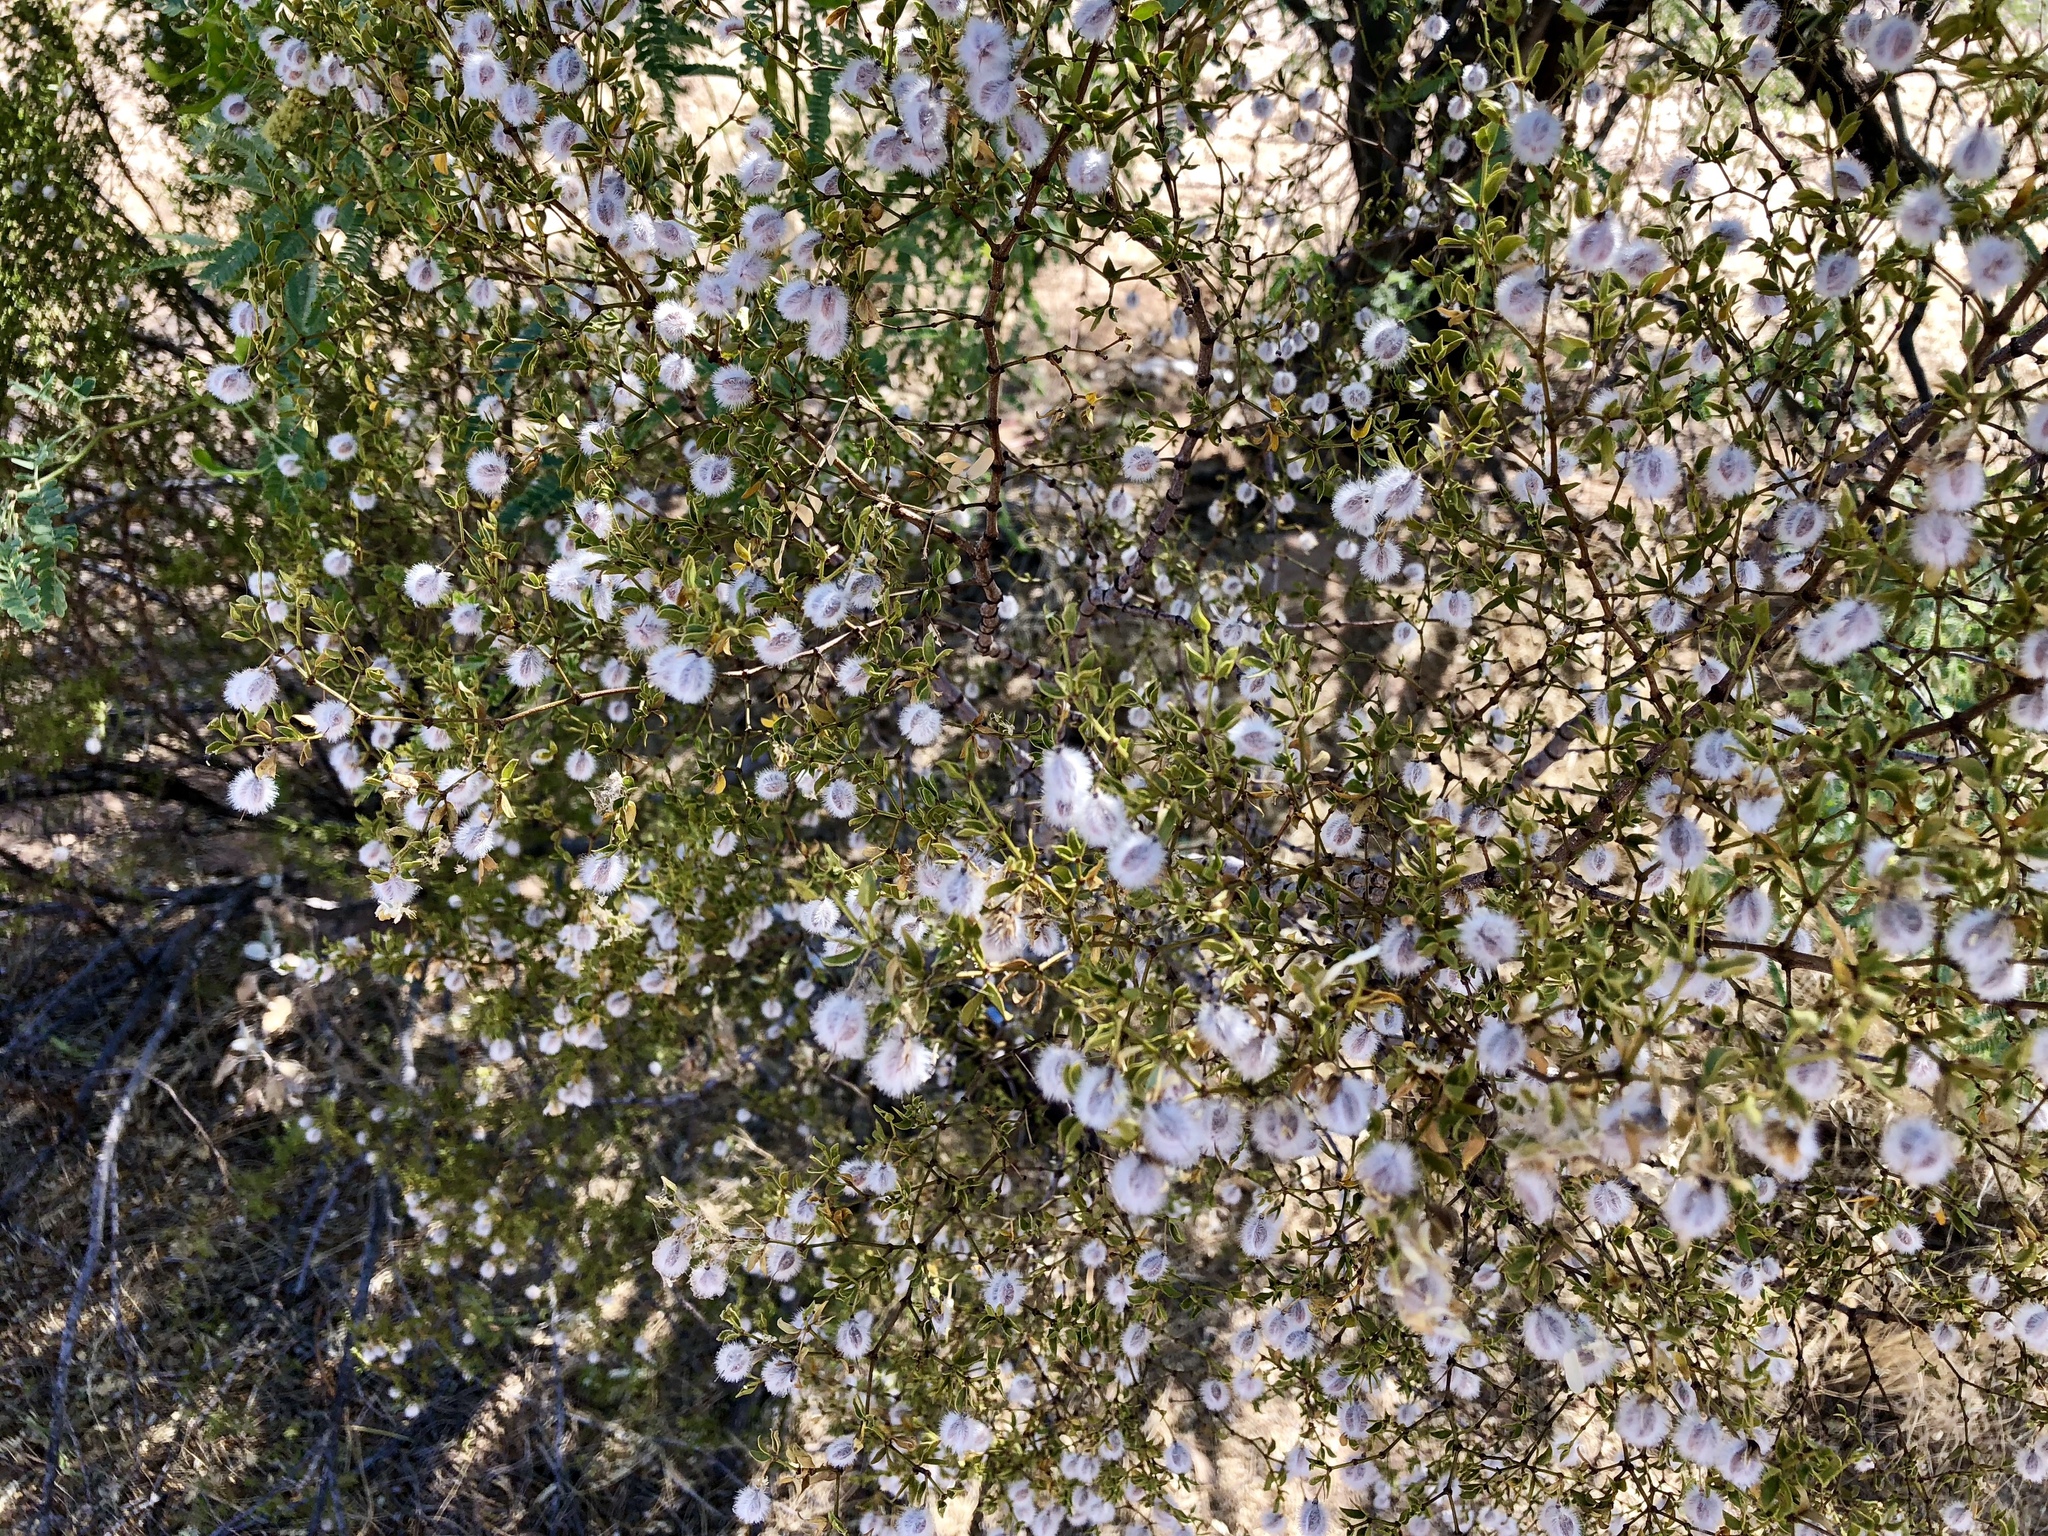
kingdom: Plantae
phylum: Tracheophyta
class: Magnoliopsida
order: Zygophyllales
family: Zygophyllaceae
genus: Larrea
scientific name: Larrea tridentata
